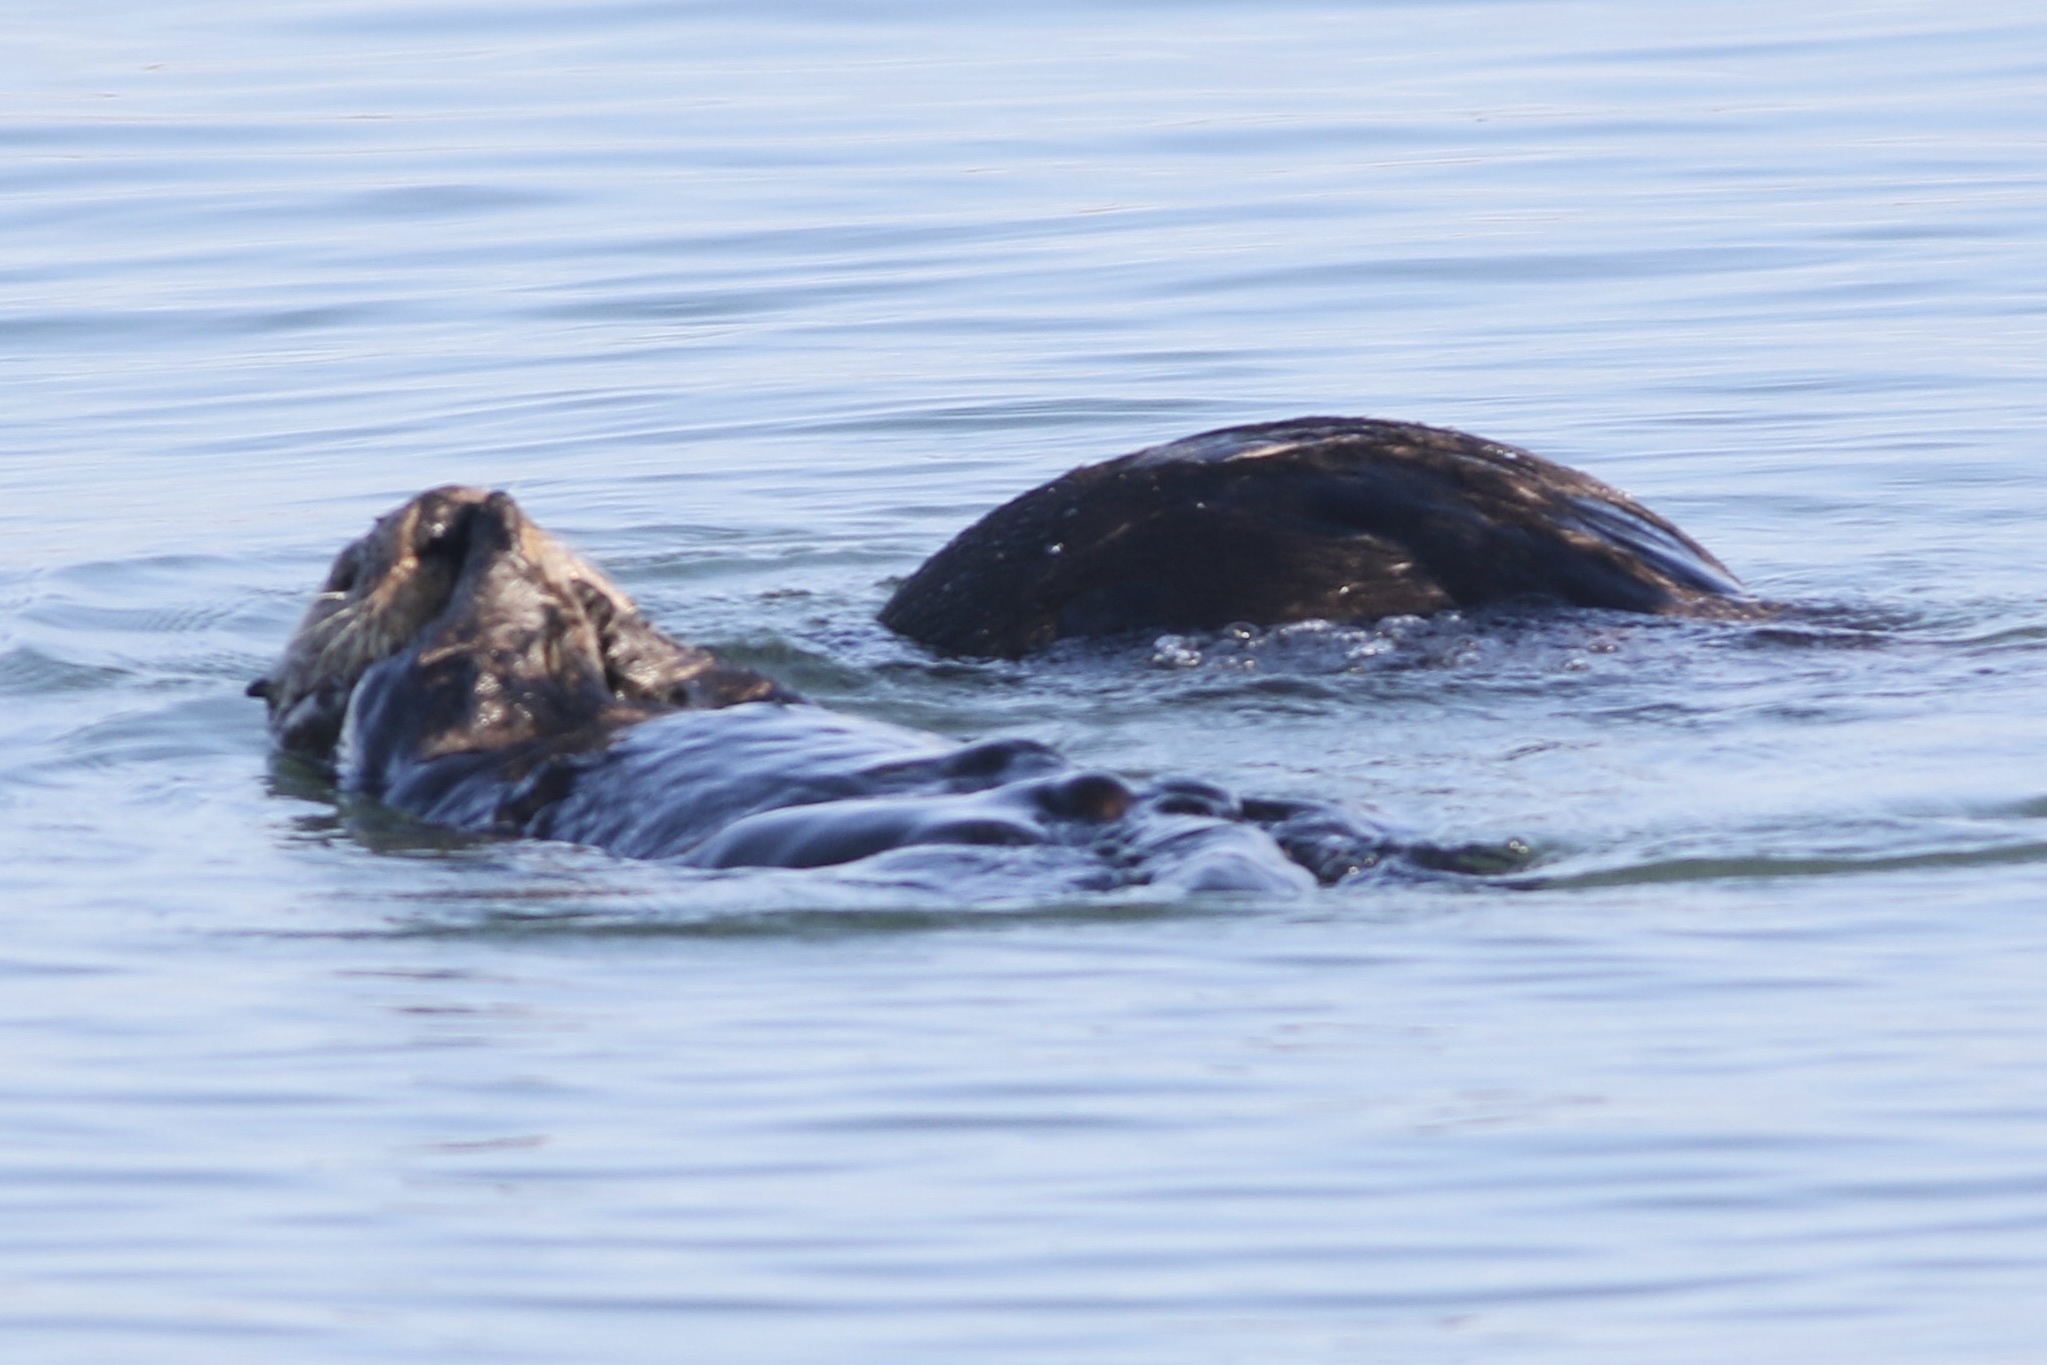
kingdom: Animalia
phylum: Chordata
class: Mammalia
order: Carnivora
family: Mustelidae
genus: Enhydra
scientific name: Enhydra lutris
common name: Sea otter
